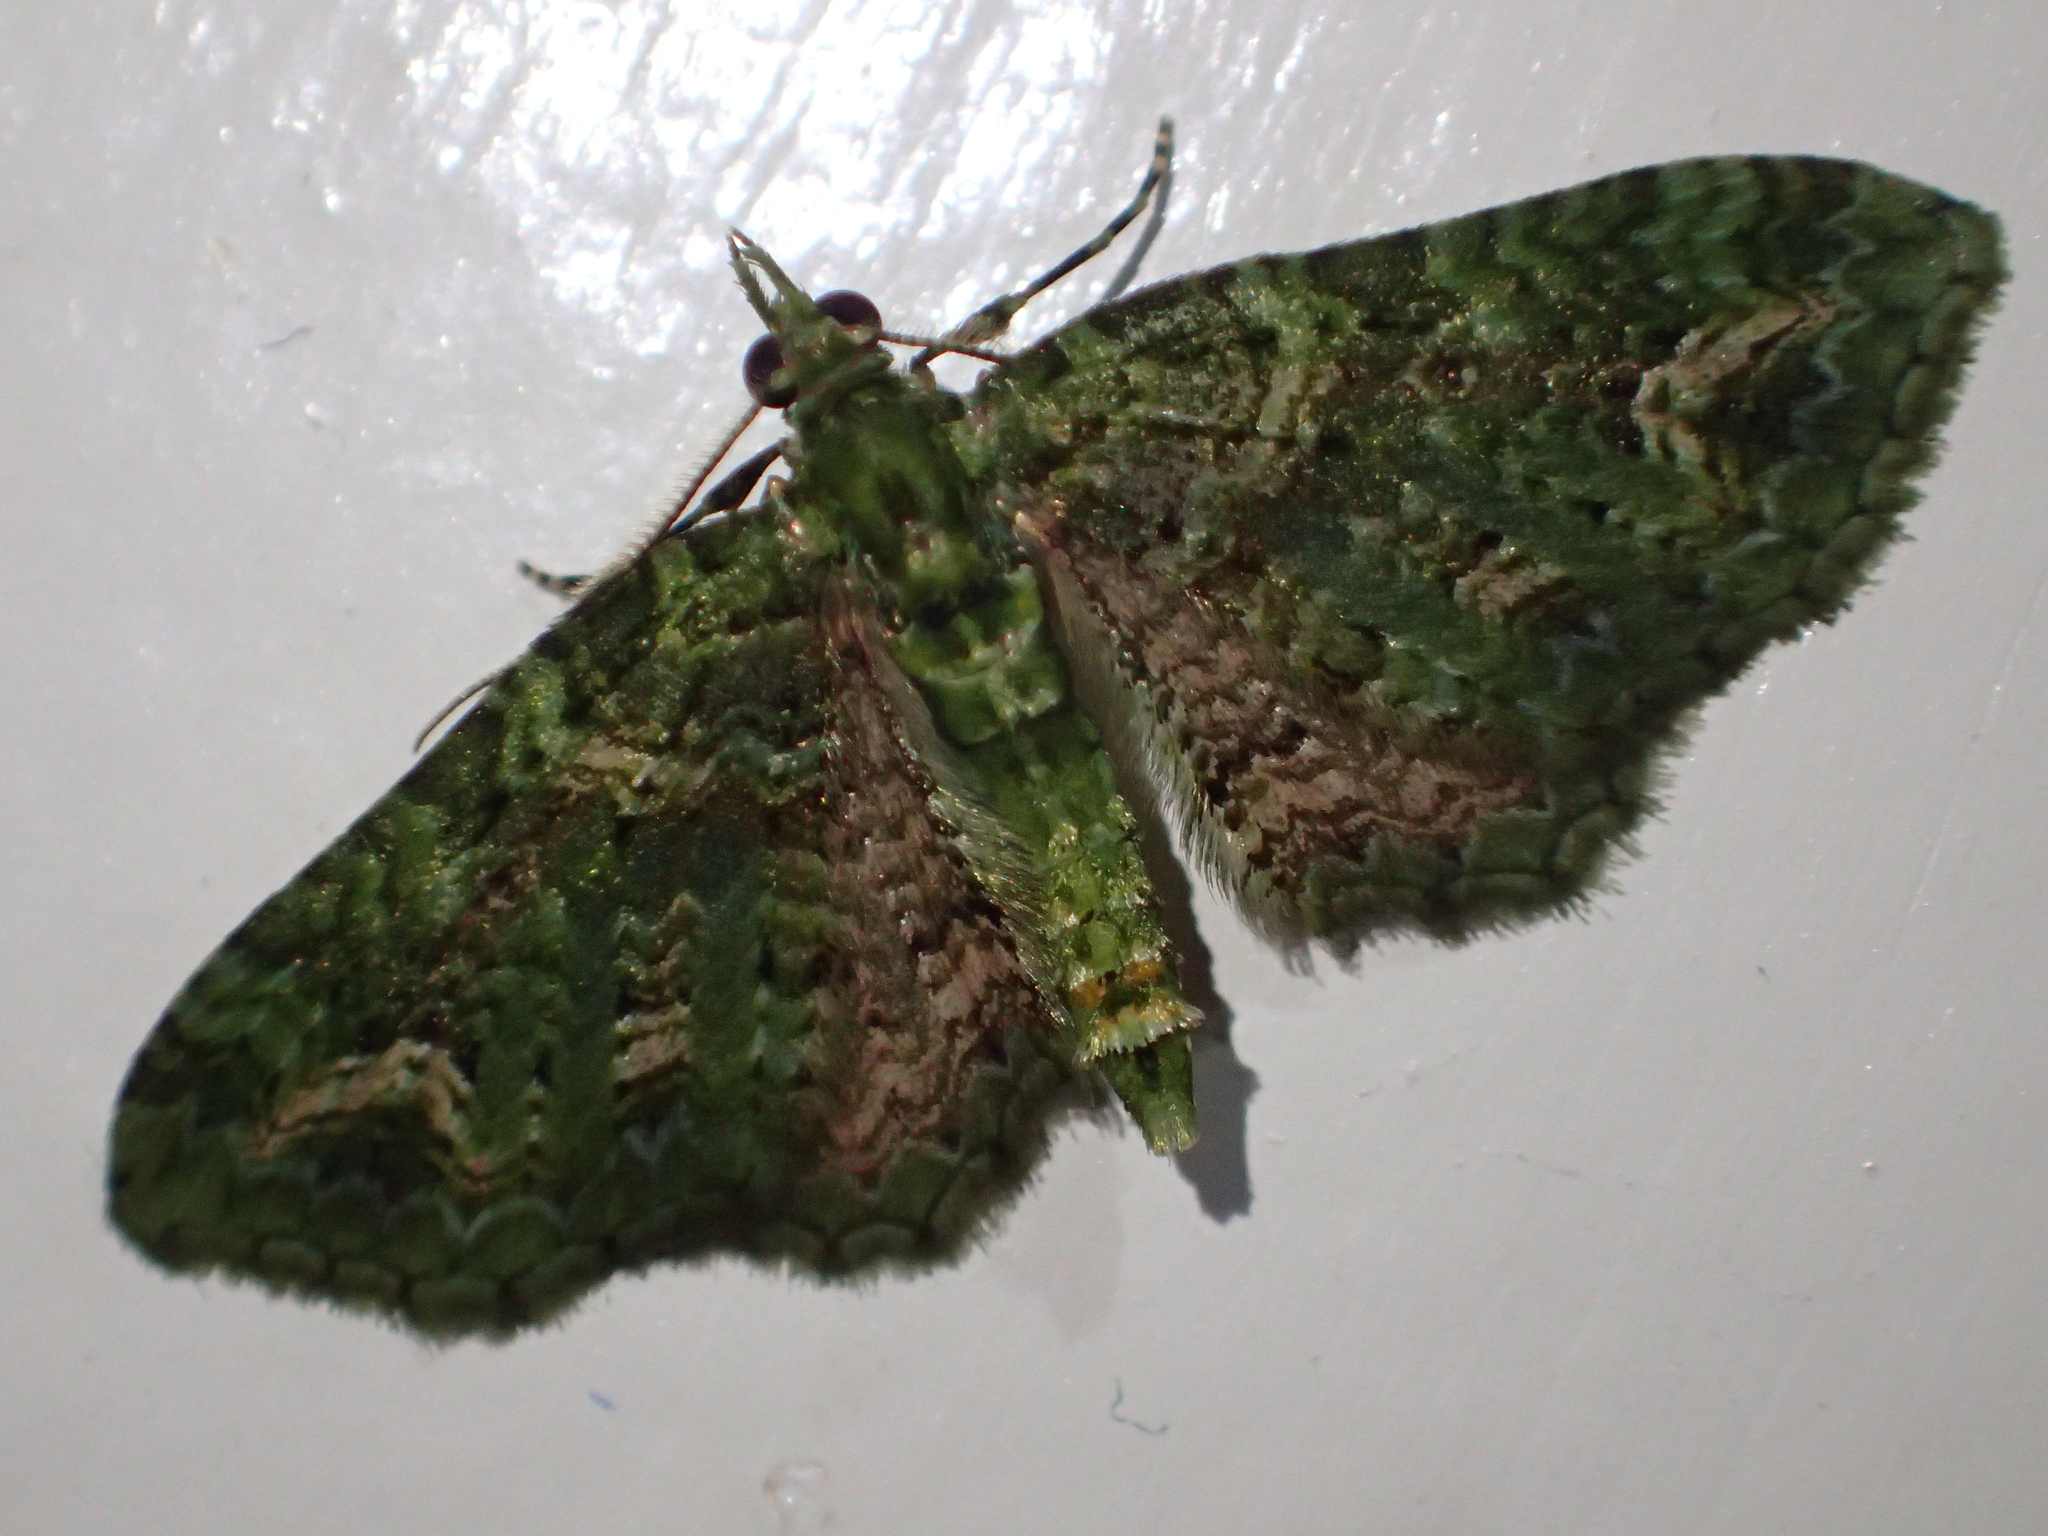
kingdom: Animalia
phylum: Arthropoda
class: Insecta
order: Lepidoptera
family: Geometridae
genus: Pasiphila
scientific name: Pasiphila muscosata
